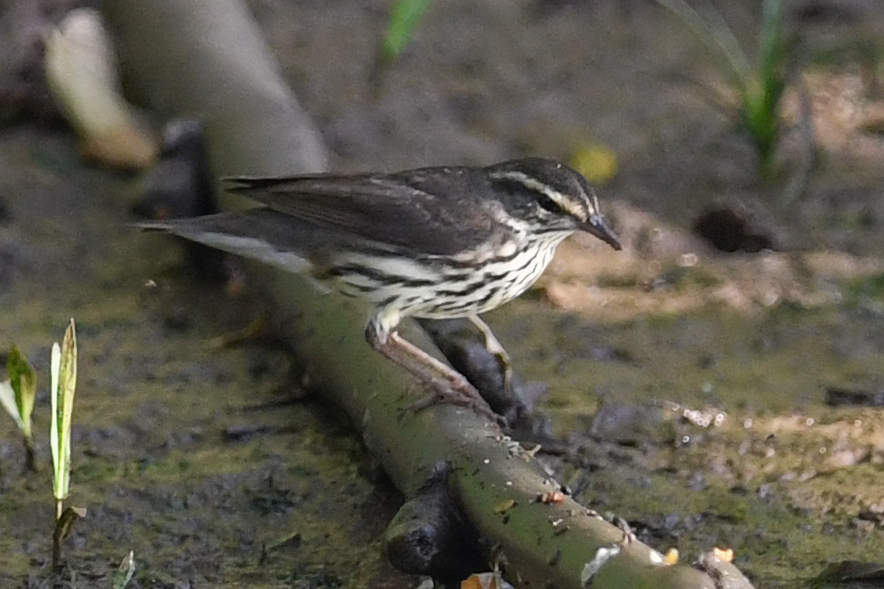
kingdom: Animalia
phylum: Chordata
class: Aves
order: Passeriformes
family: Parulidae
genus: Parkesia
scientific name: Parkesia noveboracensis
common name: Northern waterthrush
